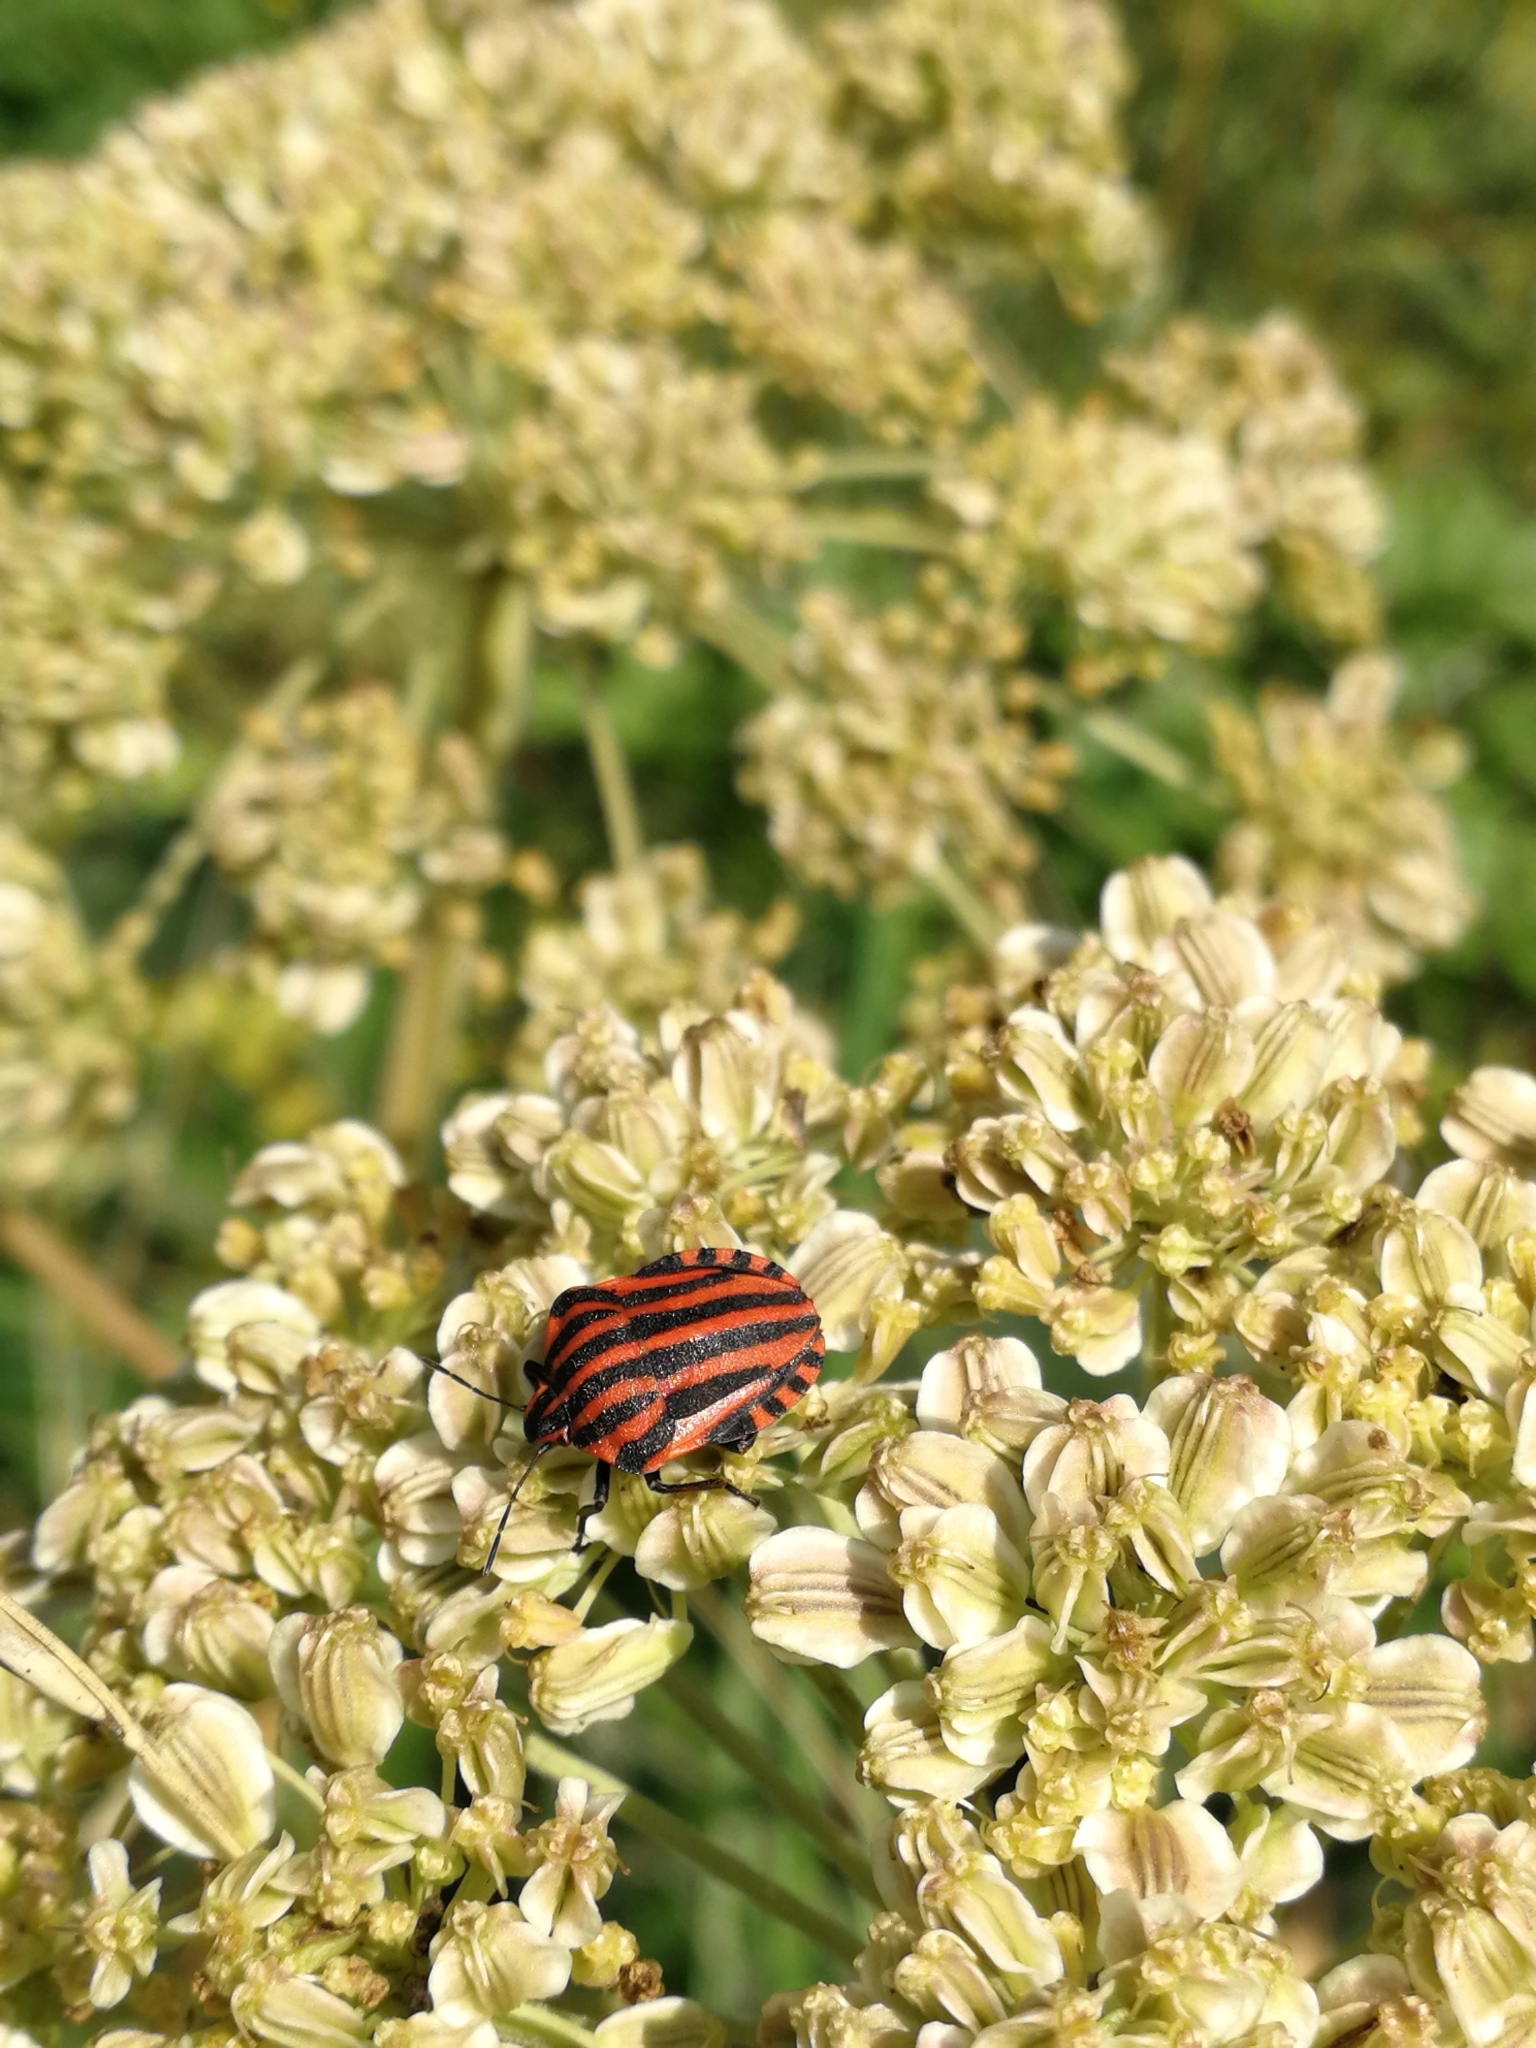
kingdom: Animalia
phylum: Arthropoda
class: Insecta
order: Hemiptera
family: Pentatomidae
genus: Graphosoma
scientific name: Graphosoma italicum
